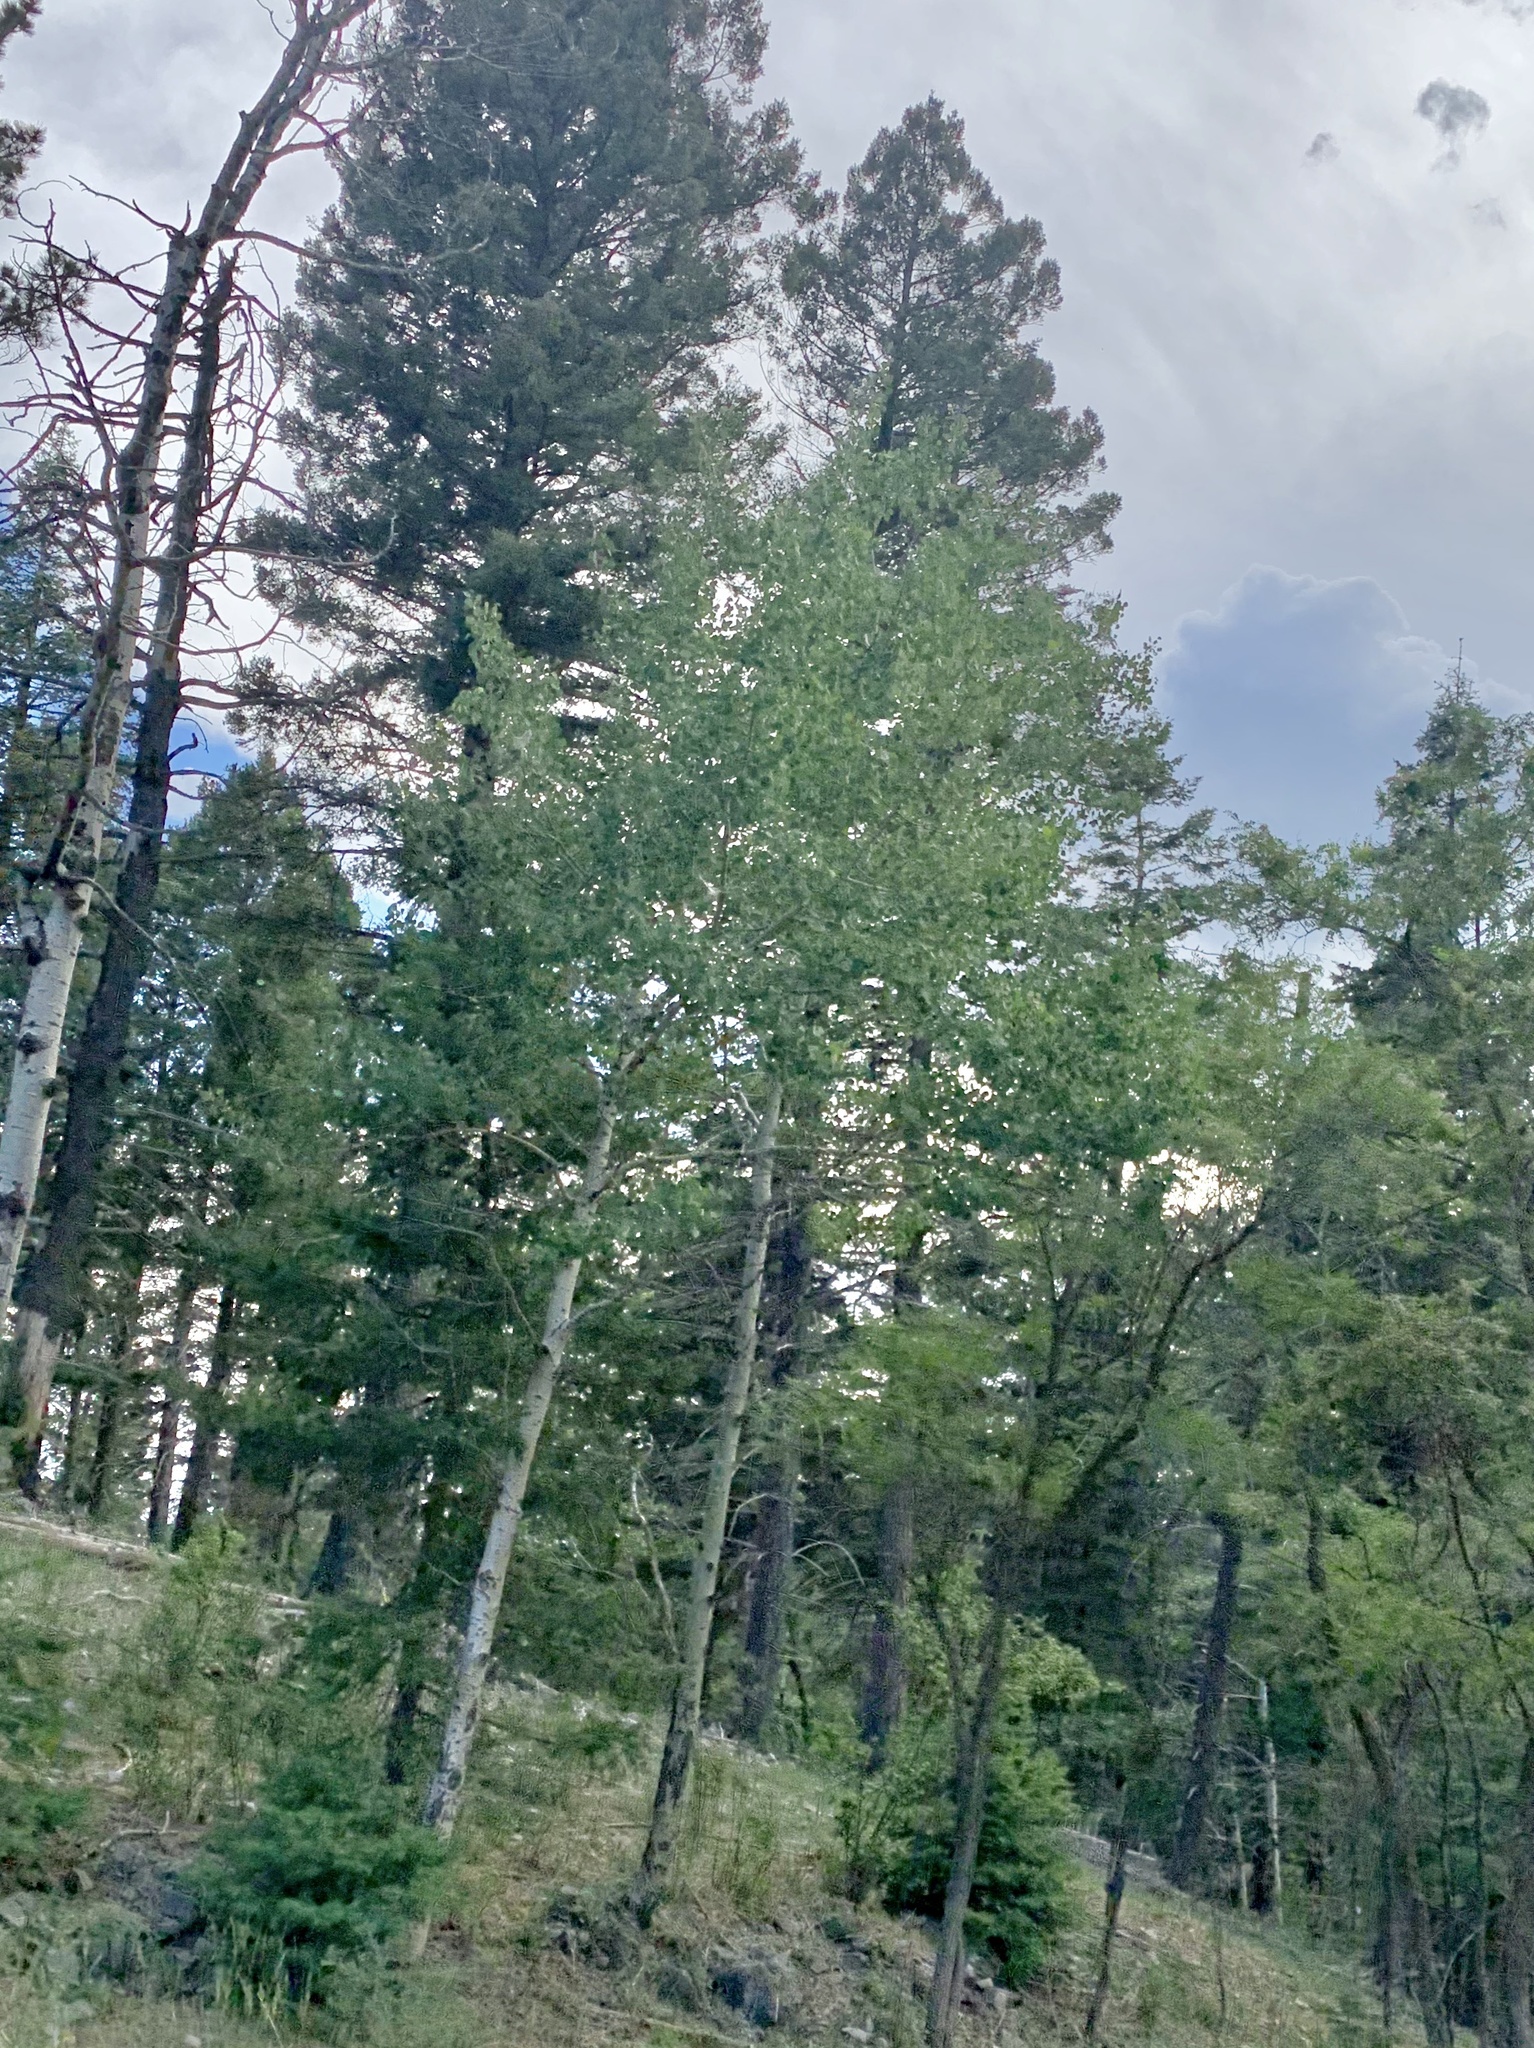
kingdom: Plantae
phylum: Tracheophyta
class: Magnoliopsida
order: Malpighiales
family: Salicaceae
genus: Populus
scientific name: Populus tremuloides
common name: Quaking aspen
